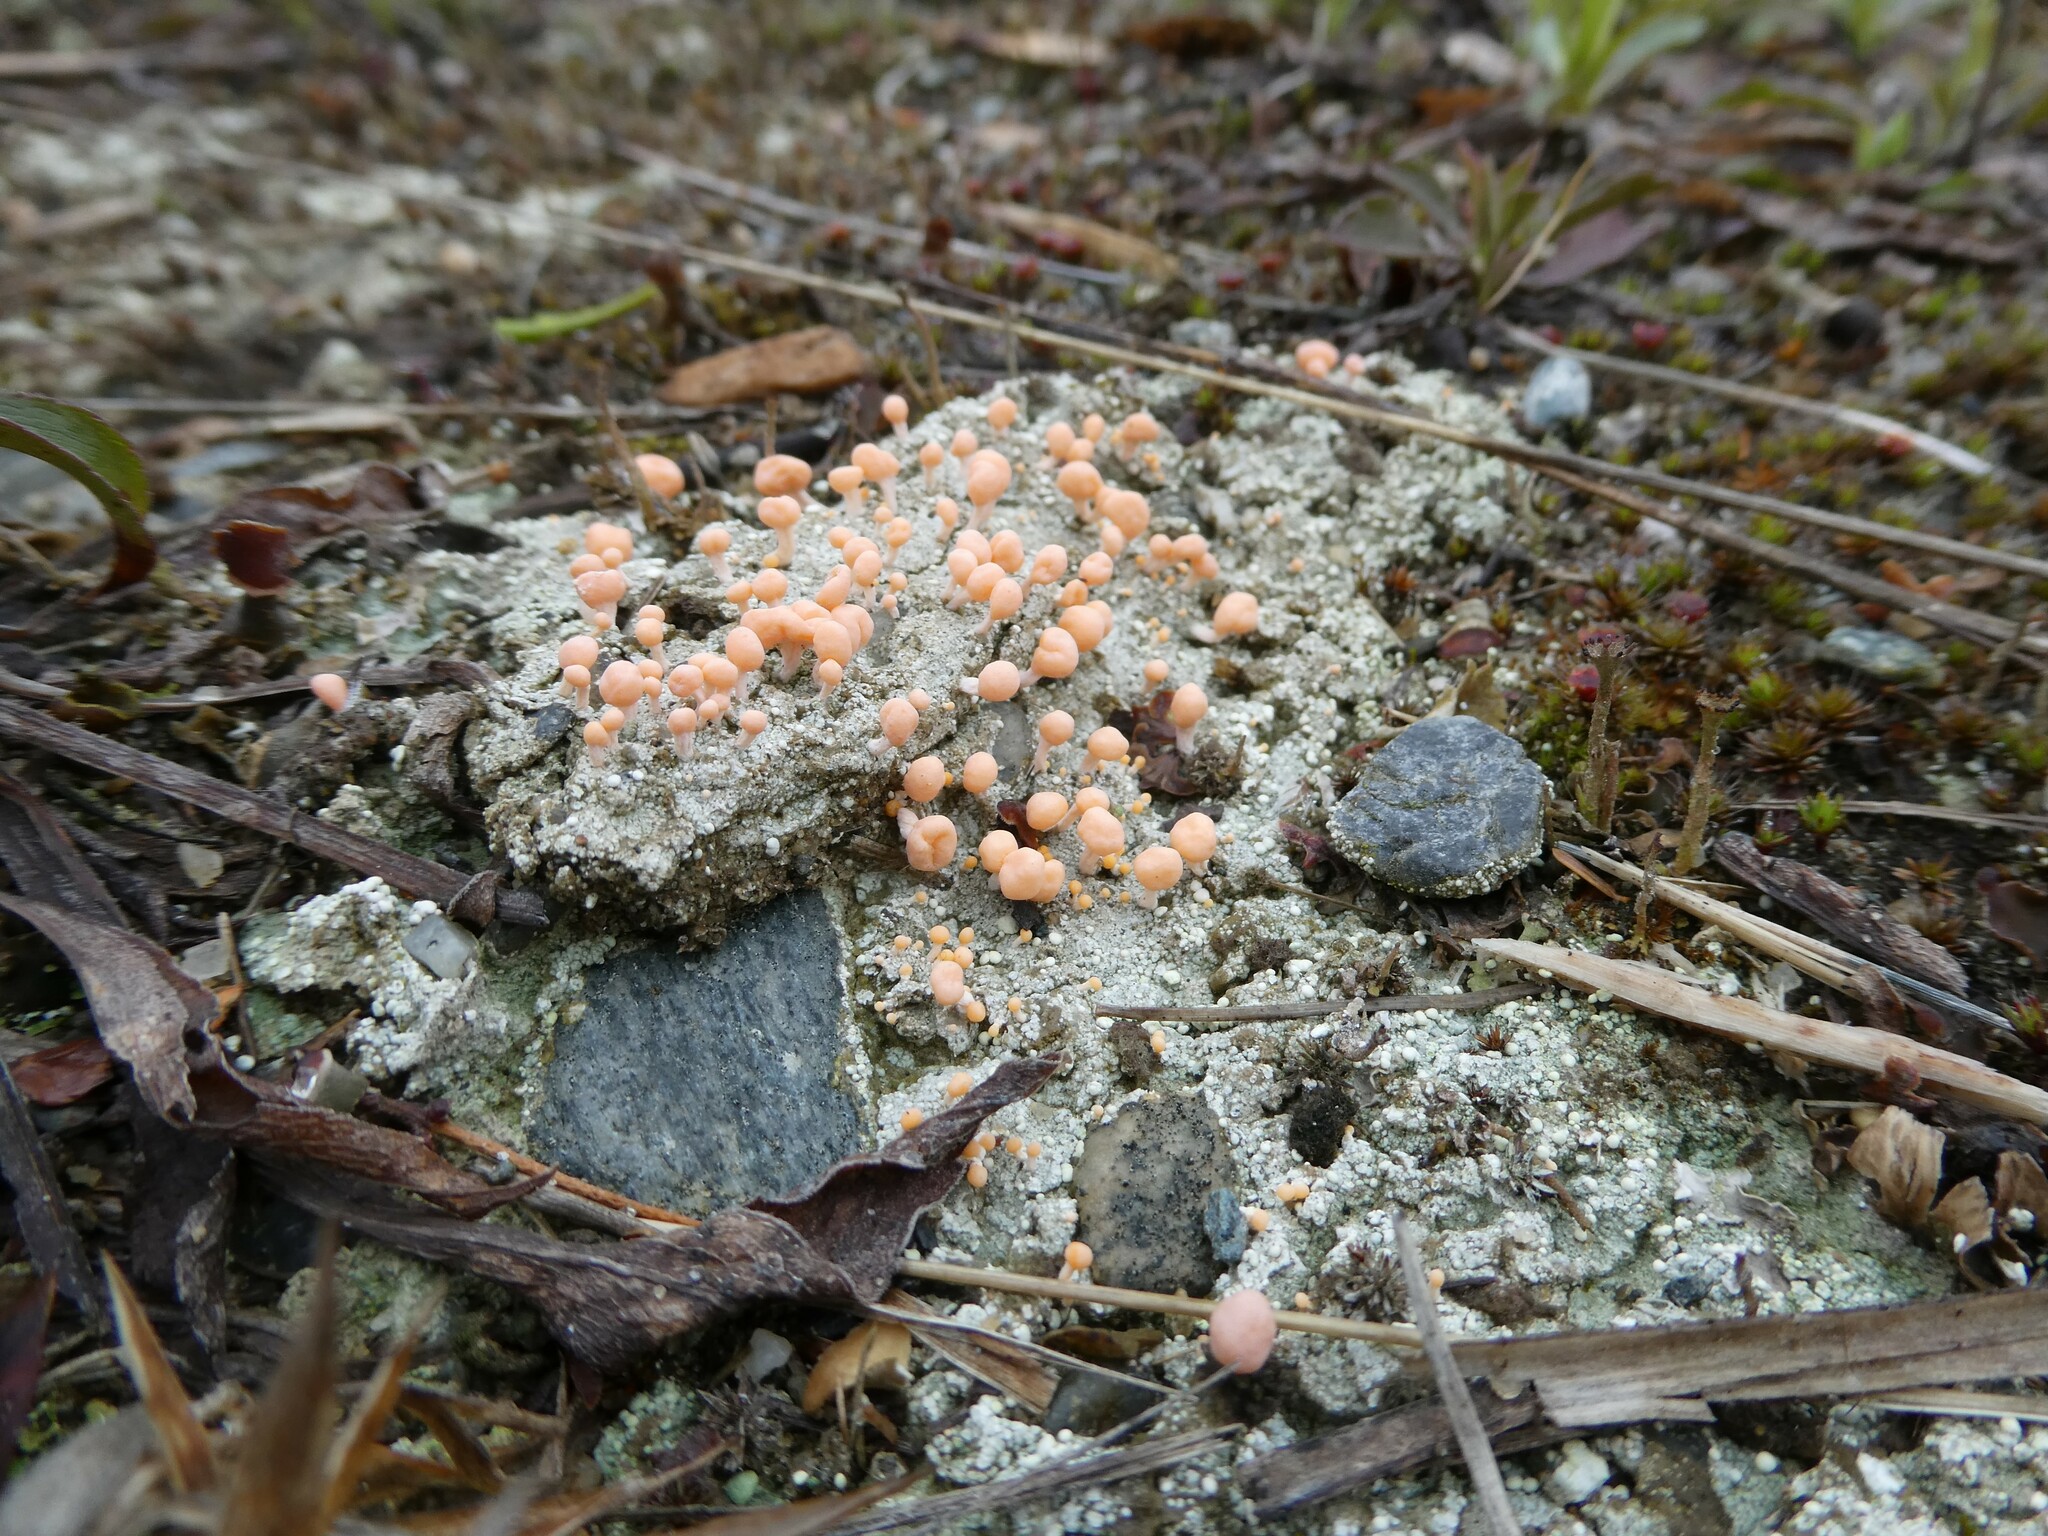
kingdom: Fungi
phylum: Ascomycota
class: Lecanoromycetes
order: Pertusariales
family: Icmadophilaceae
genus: Dibaeis
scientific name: Dibaeis baeomyces
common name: Pink earth lichen
